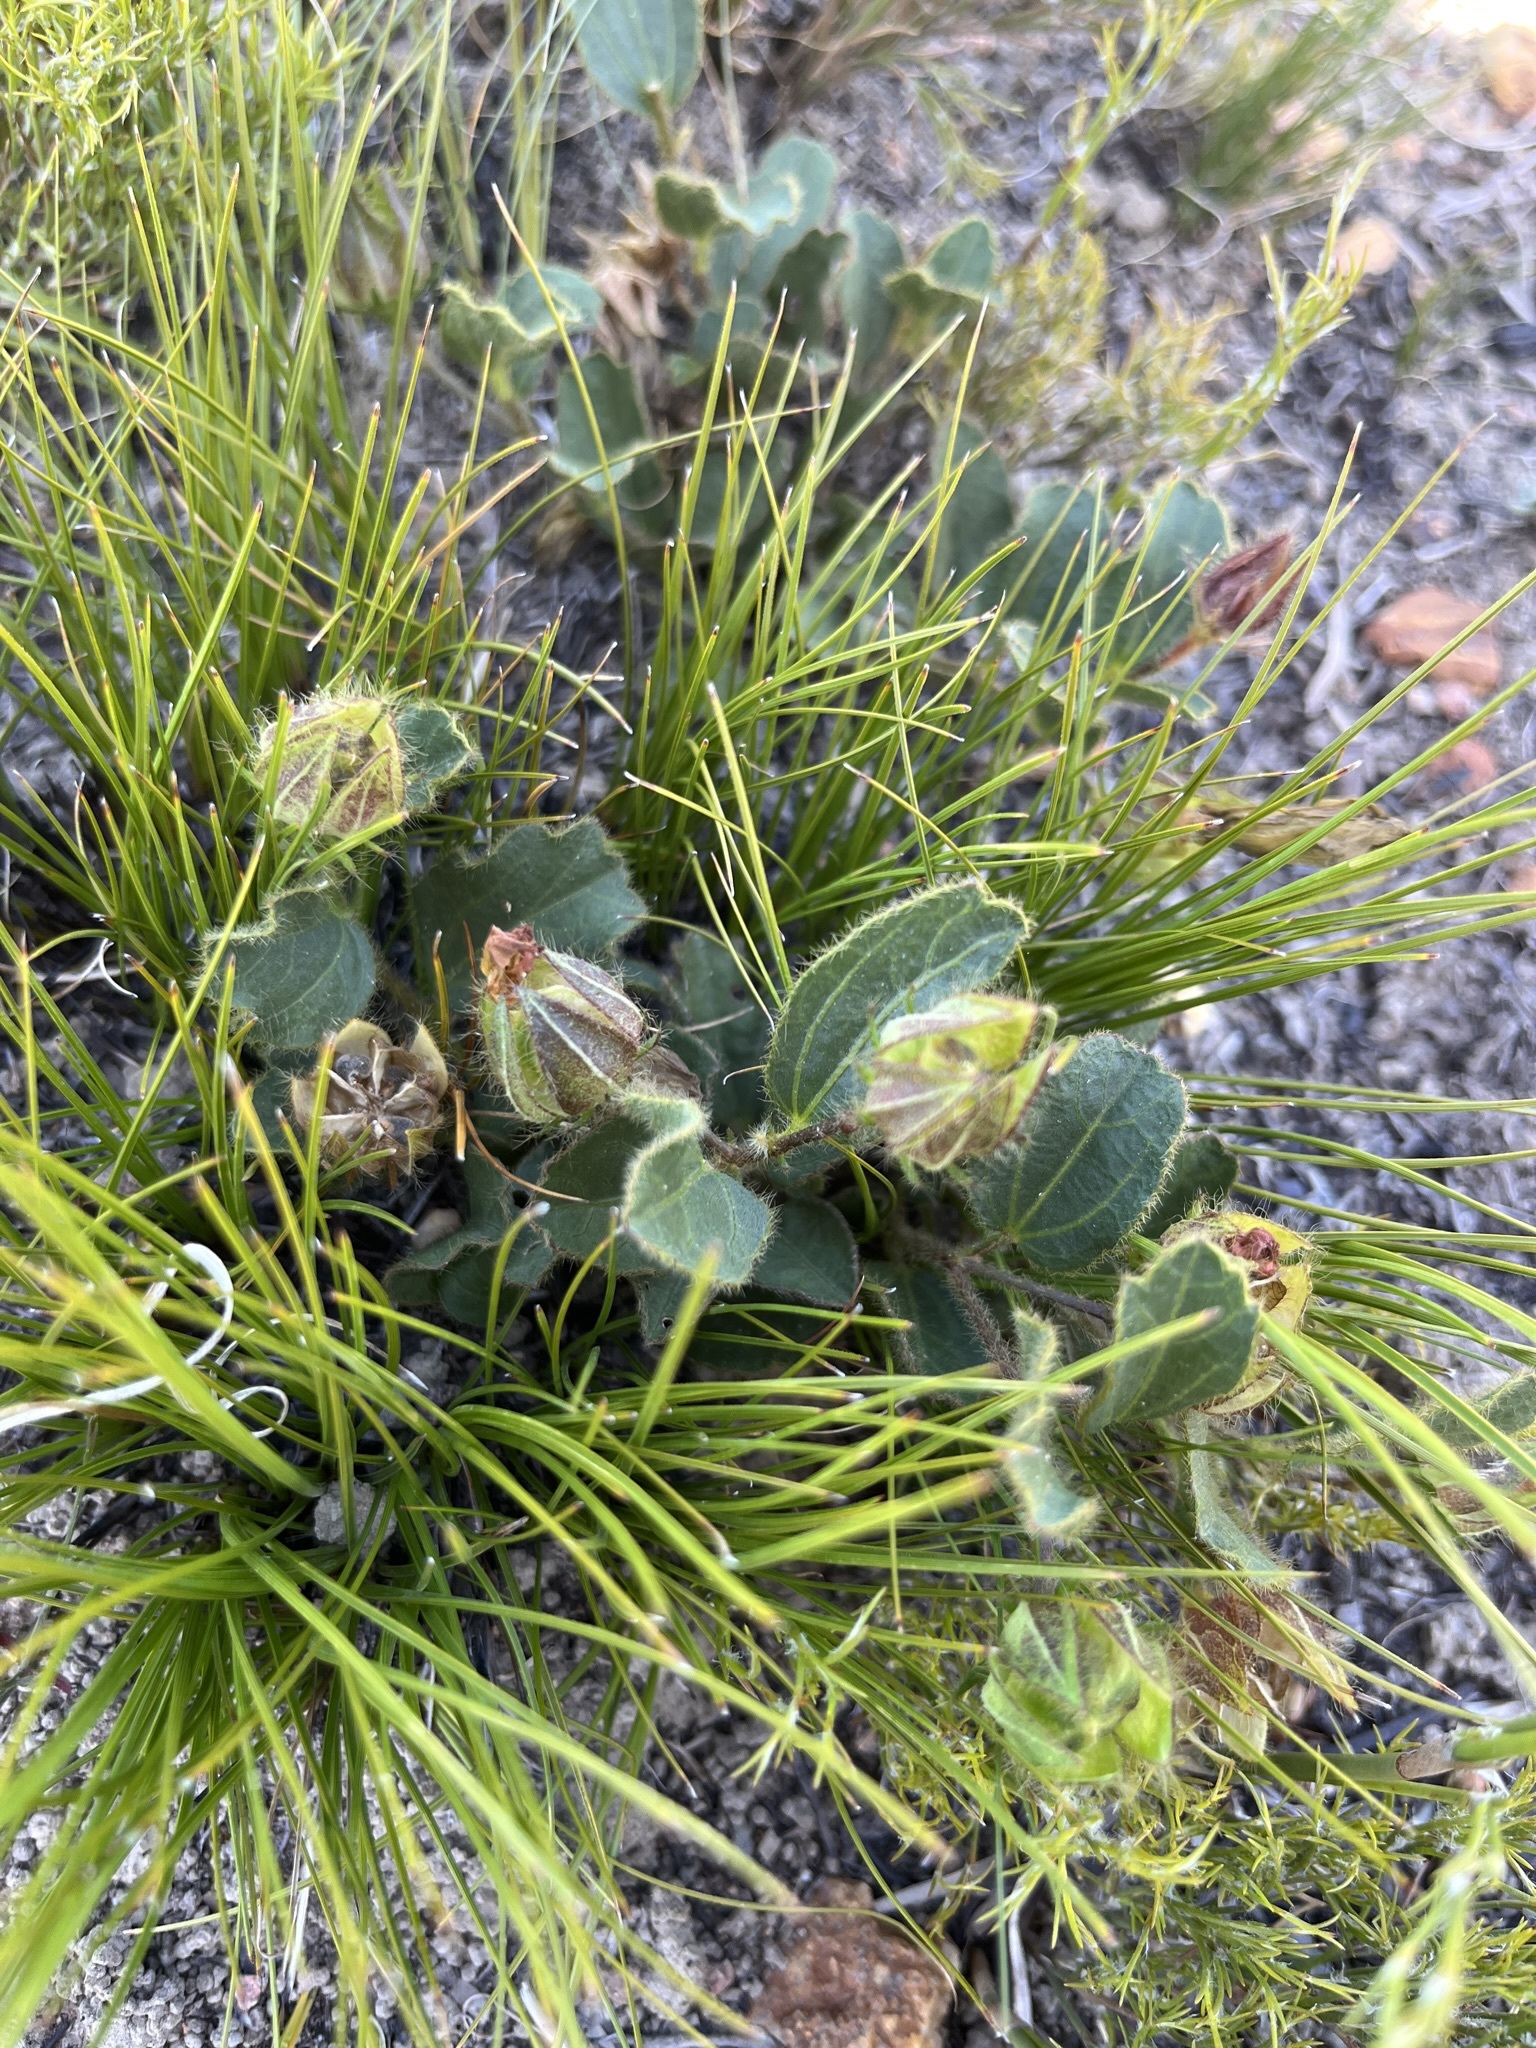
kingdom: Plantae
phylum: Tracheophyta
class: Magnoliopsida
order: Malvales
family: Malvaceae
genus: Hibiscus
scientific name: Hibiscus aethiopicus
